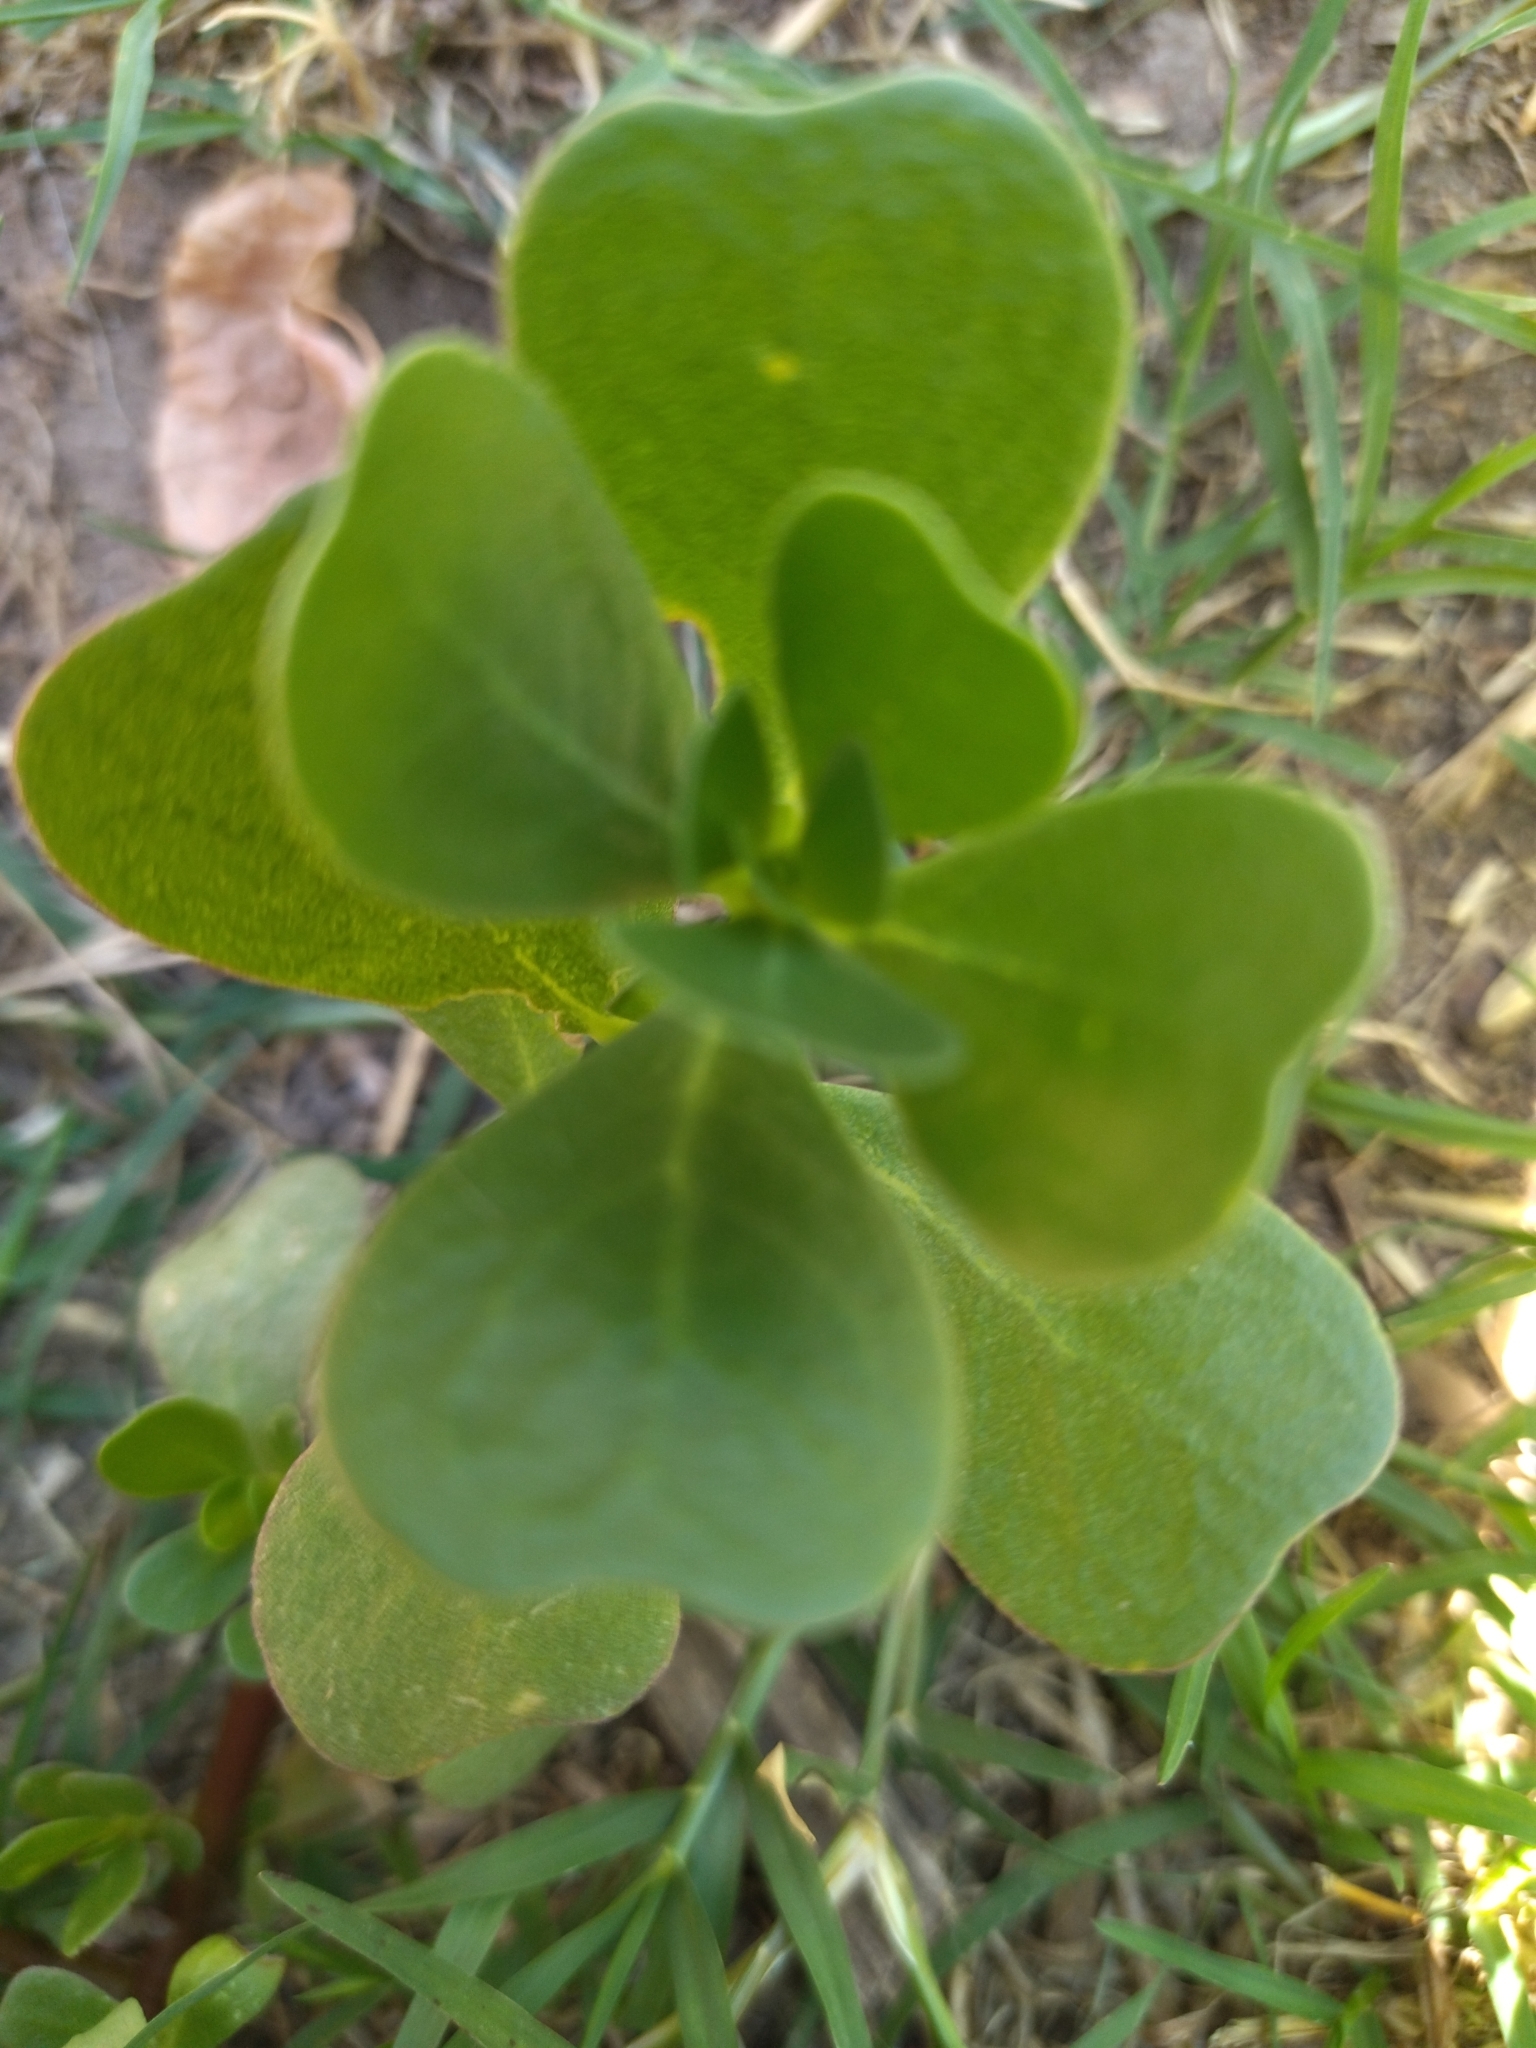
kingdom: Plantae
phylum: Tracheophyta
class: Magnoliopsida
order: Caryophyllales
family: Portulacaceae
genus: Portulaca
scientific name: Portulaca oleracea
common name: Common purslane
